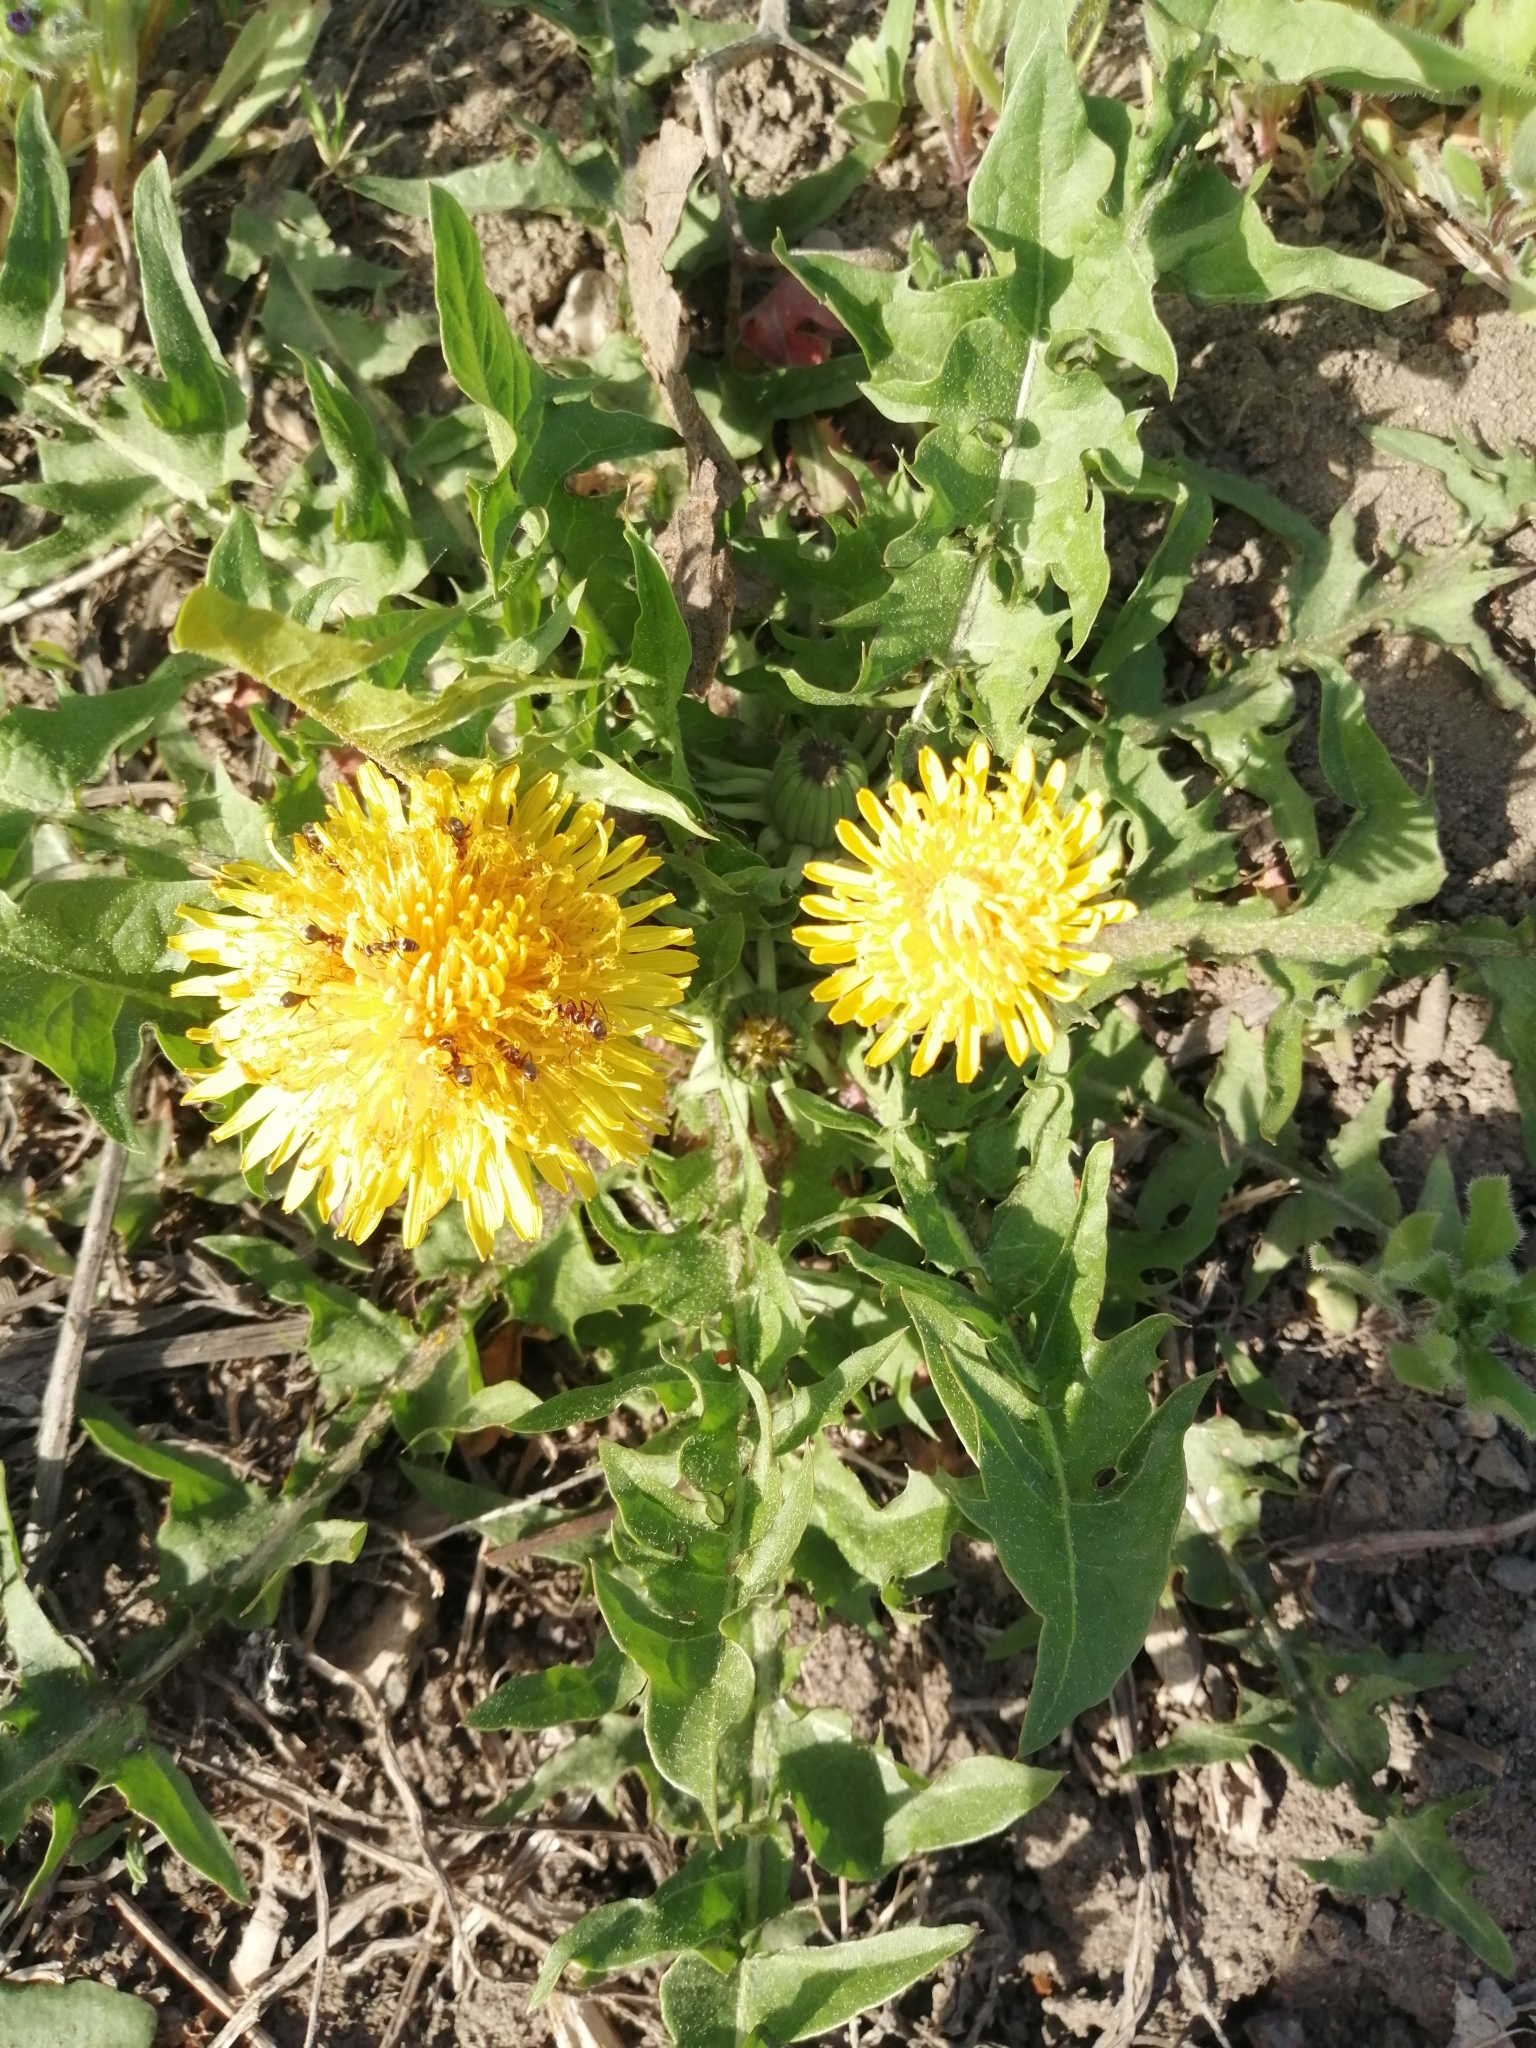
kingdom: Plantae
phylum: Tracheophyta
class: Magnoliopsida
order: Asterales
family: Asteraceae
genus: Taraxacum
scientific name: Taraxacum officinale
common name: Common dandelion
